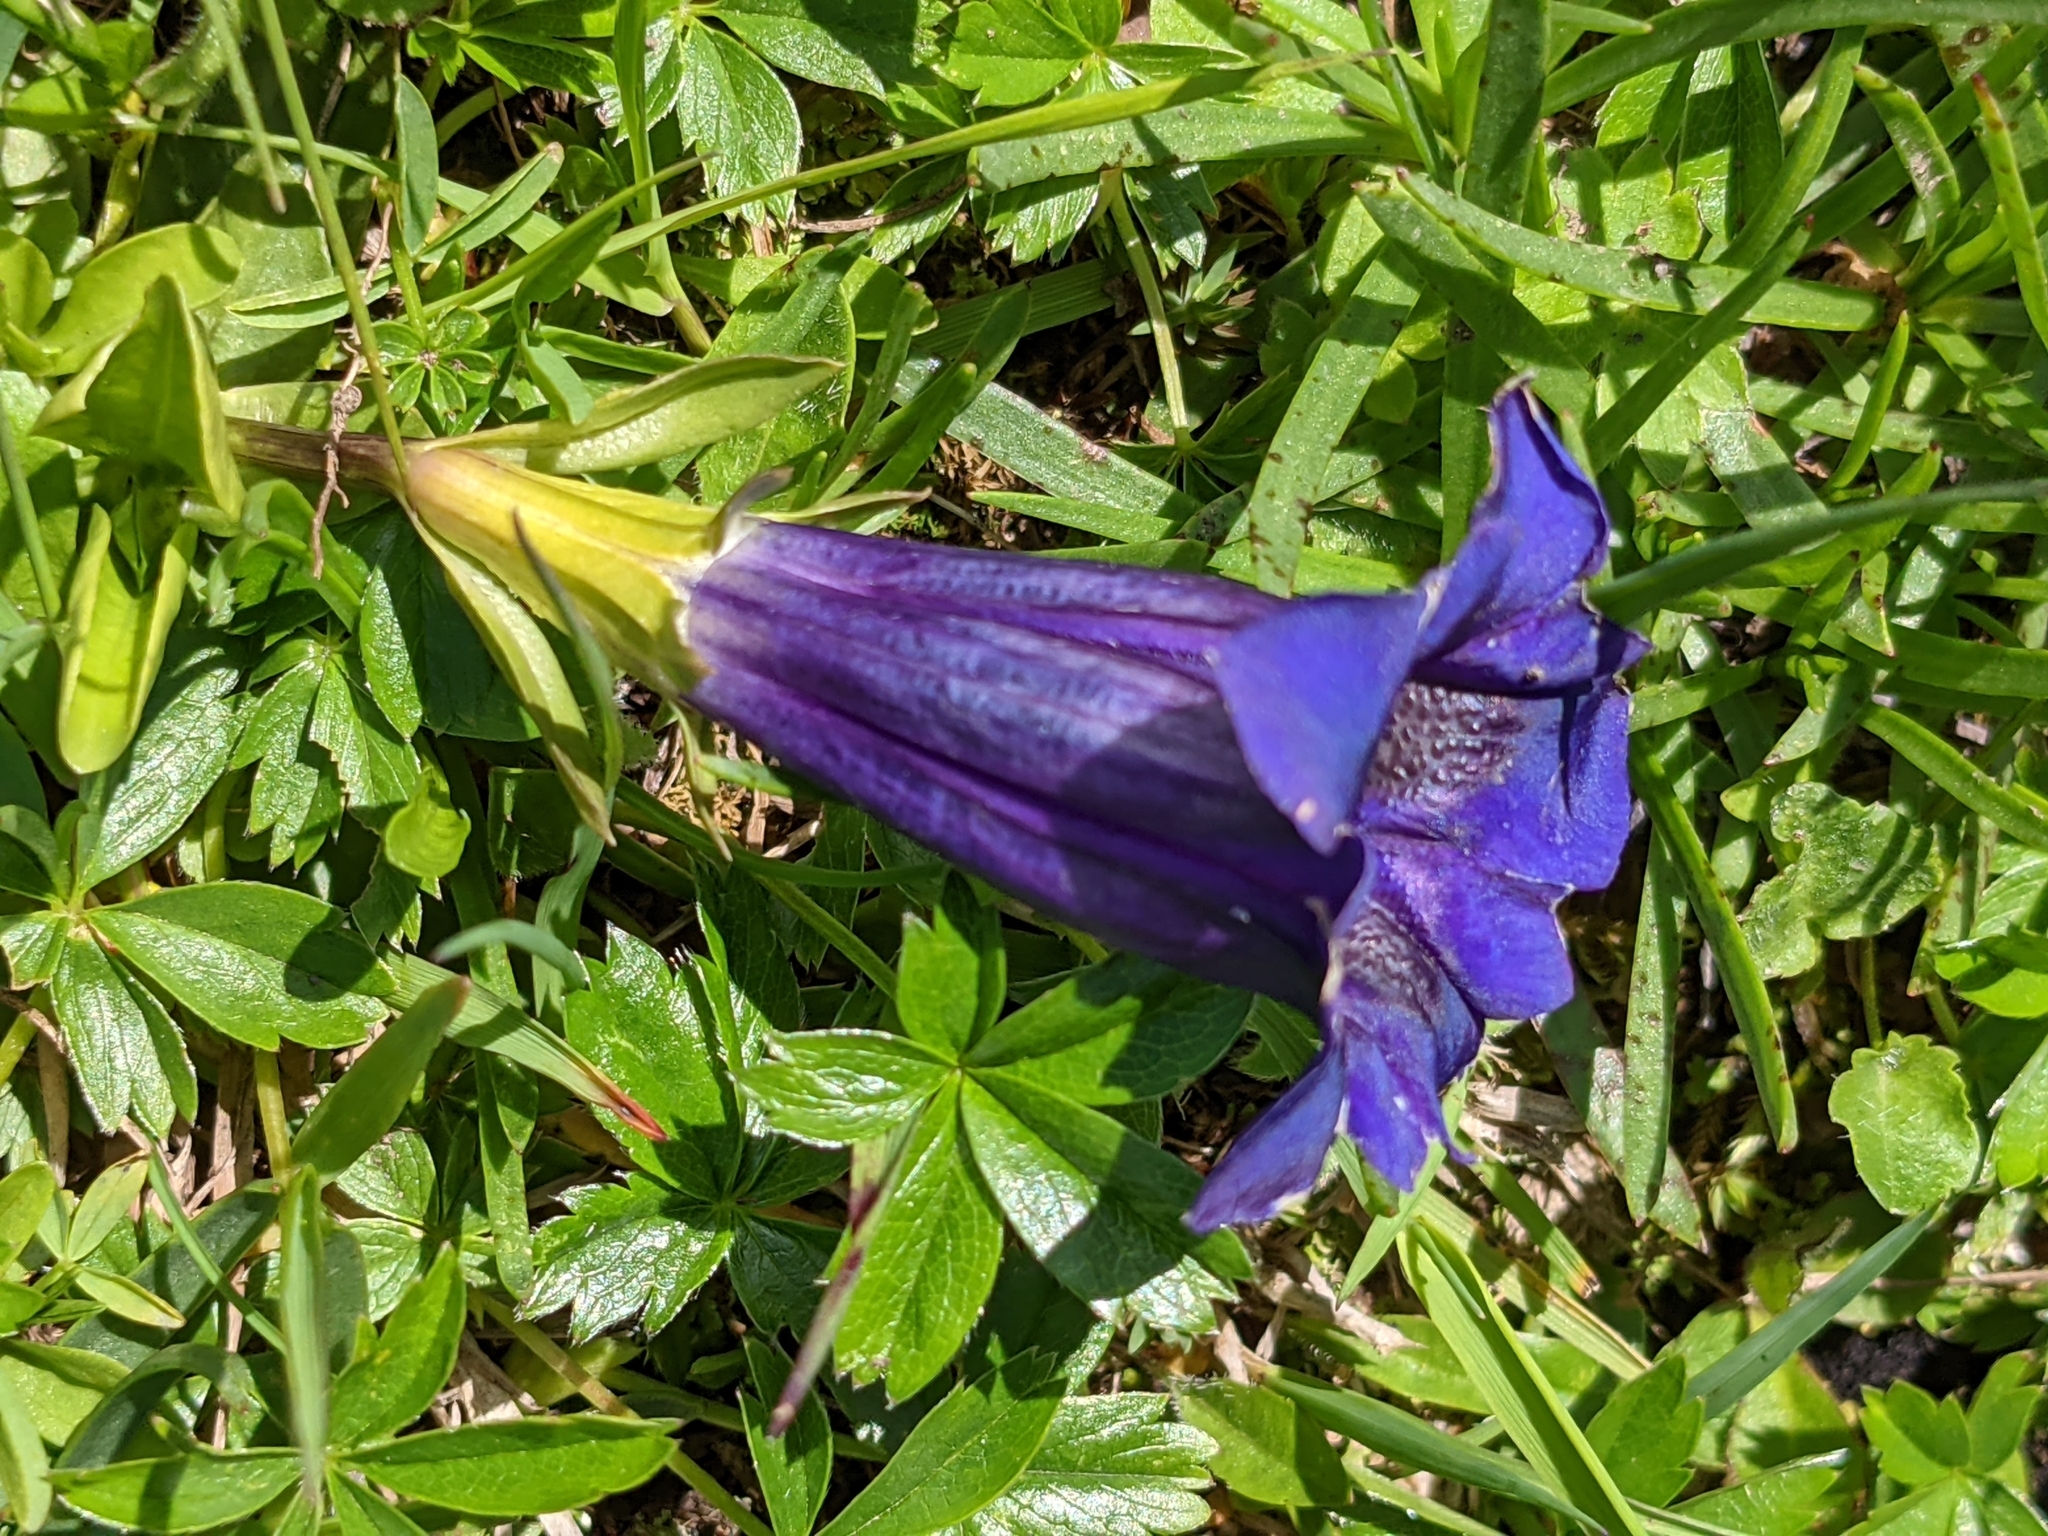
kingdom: Plantae
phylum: Tracheophyta
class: Magnoliopsida
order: Gentianales
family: Gentianaceae
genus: Gentiana
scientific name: Gentiana acaulis
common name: Trumpet gentian
